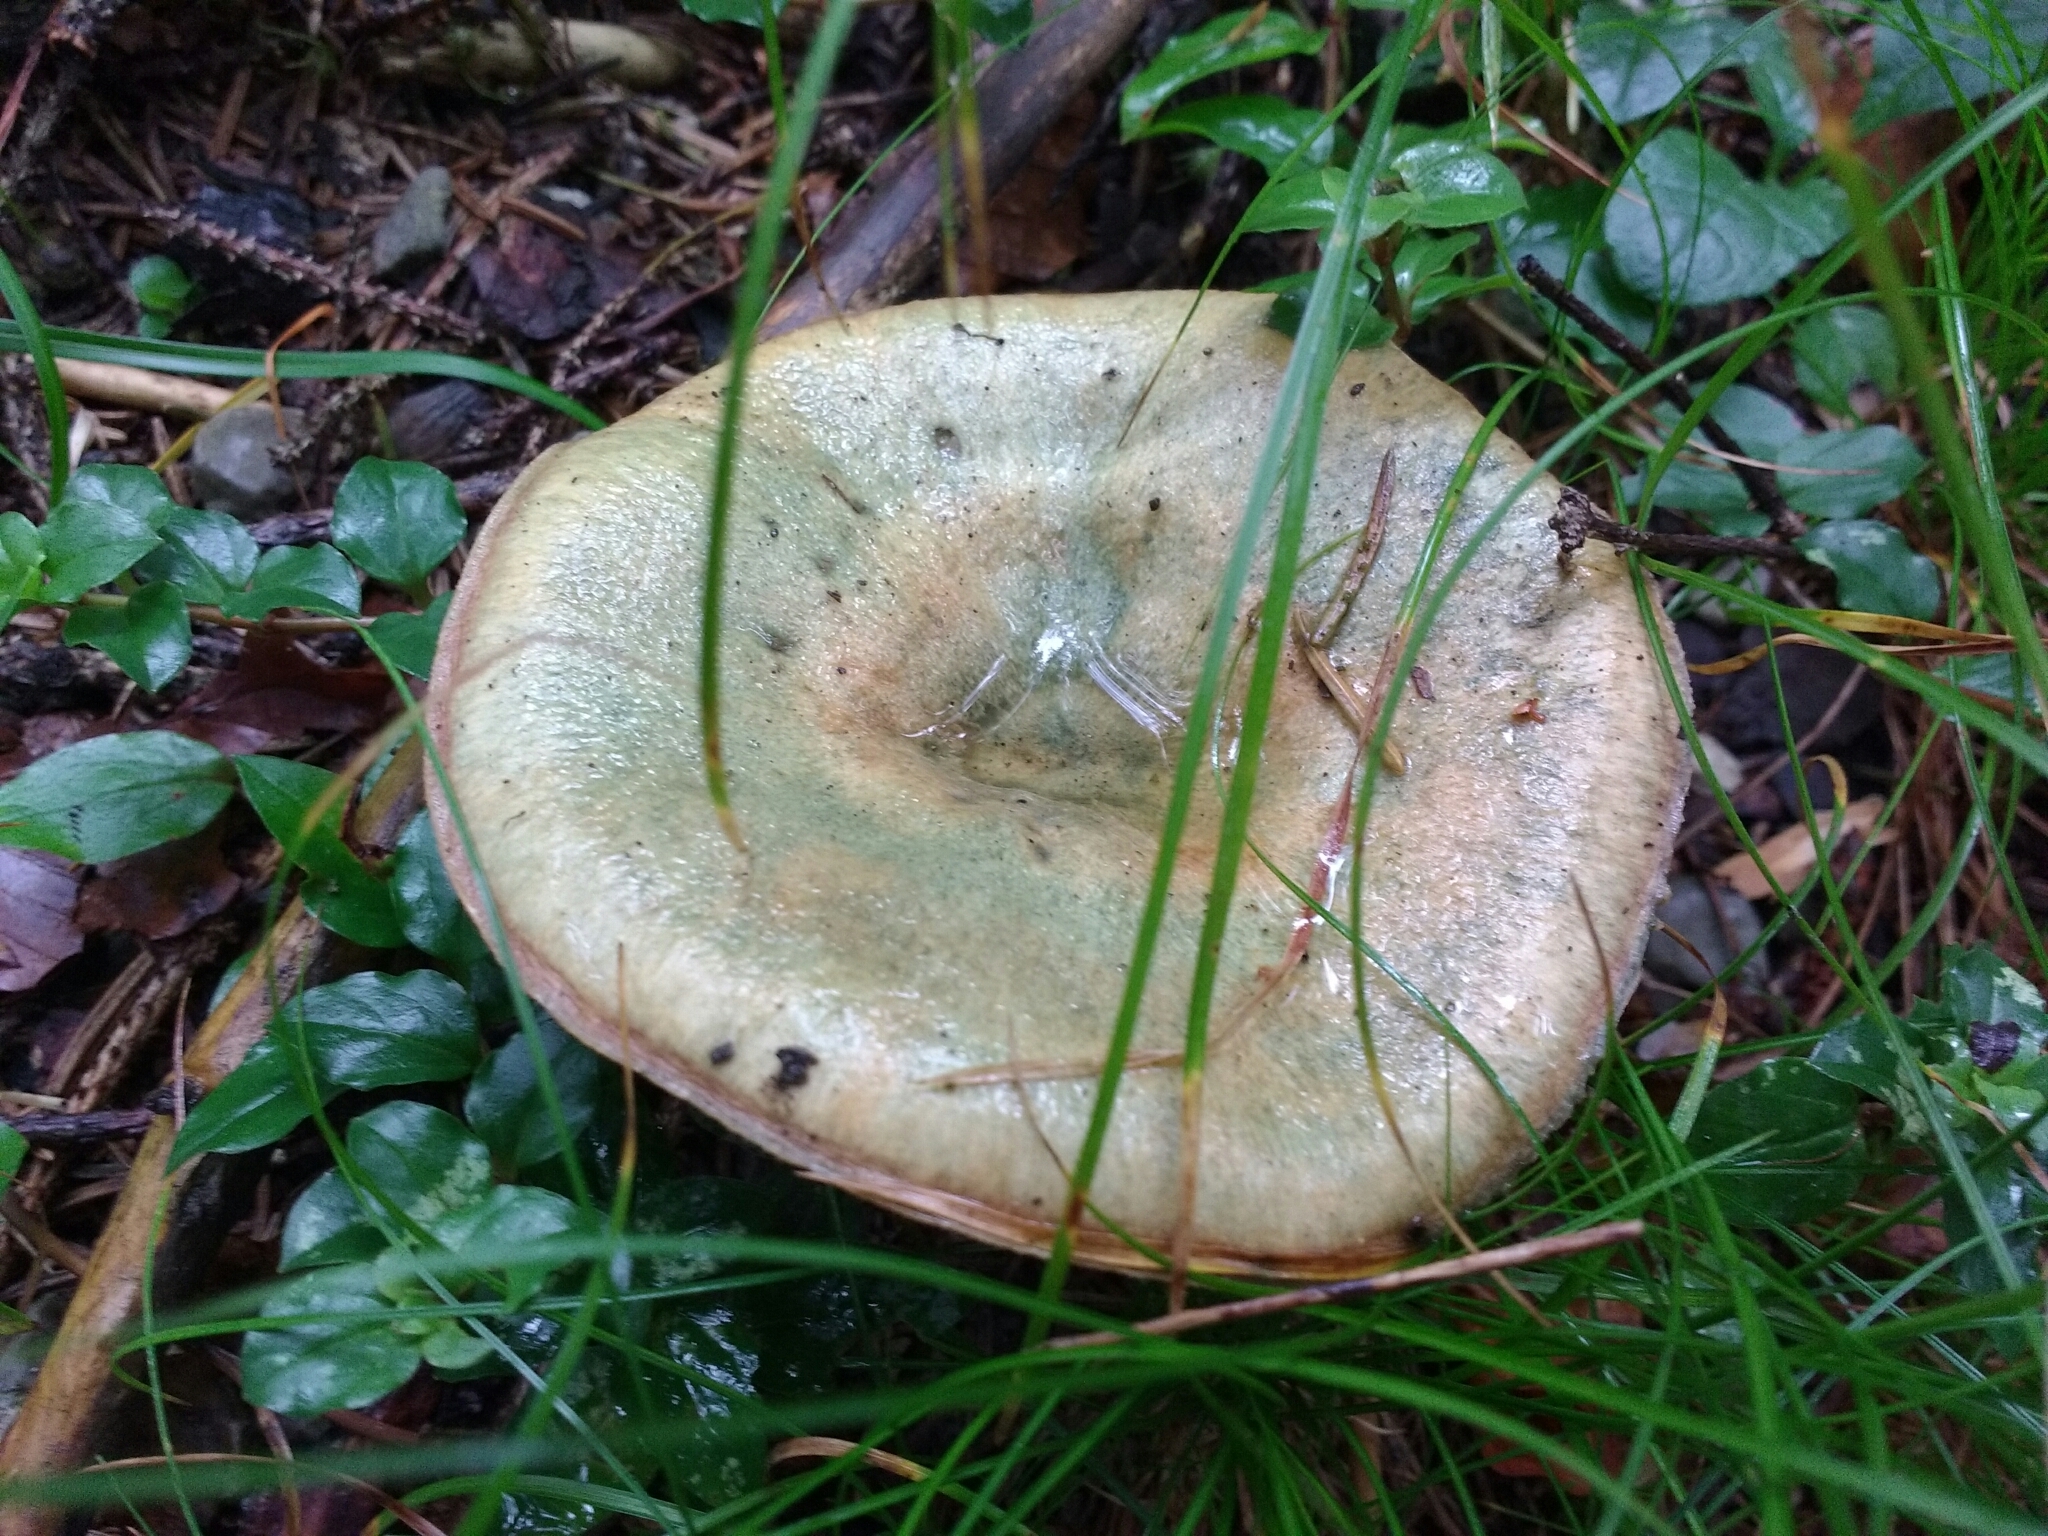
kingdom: Fungi
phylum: Basidiomycota
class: Agaricomycetes
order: Russulales
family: Russulaceae
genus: Lactarius
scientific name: Lactarius deterrimus
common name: False saffron milkcap
